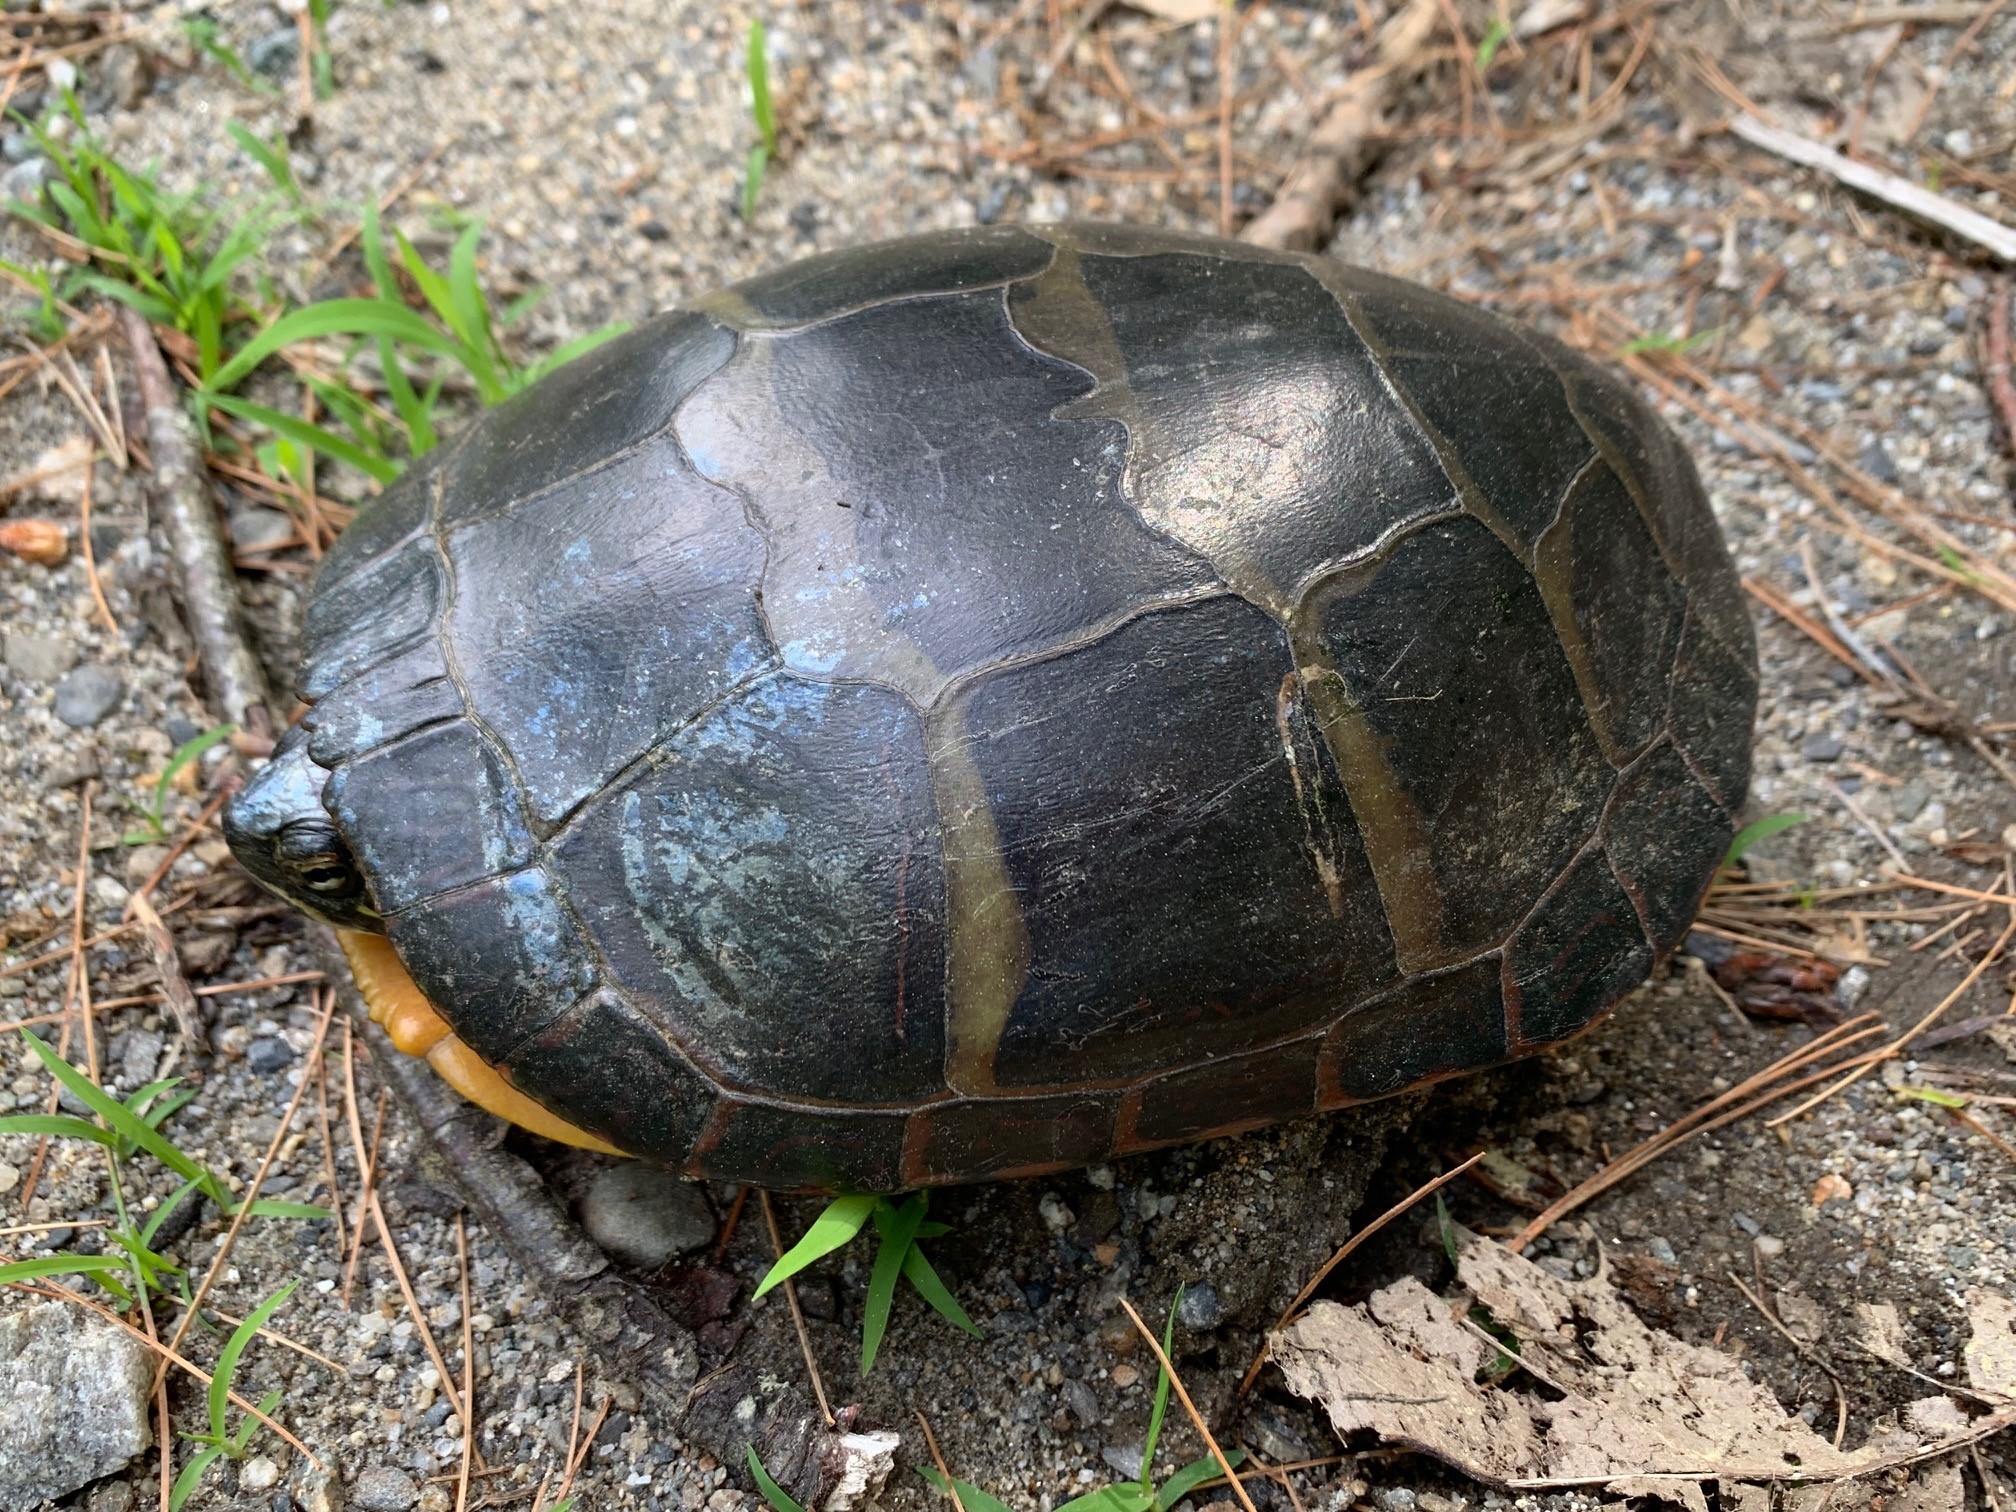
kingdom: Animalia
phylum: Chordata
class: Testudines
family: Emydidae
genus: Chrysemys
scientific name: Chrysemys picta
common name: Painted turtle
